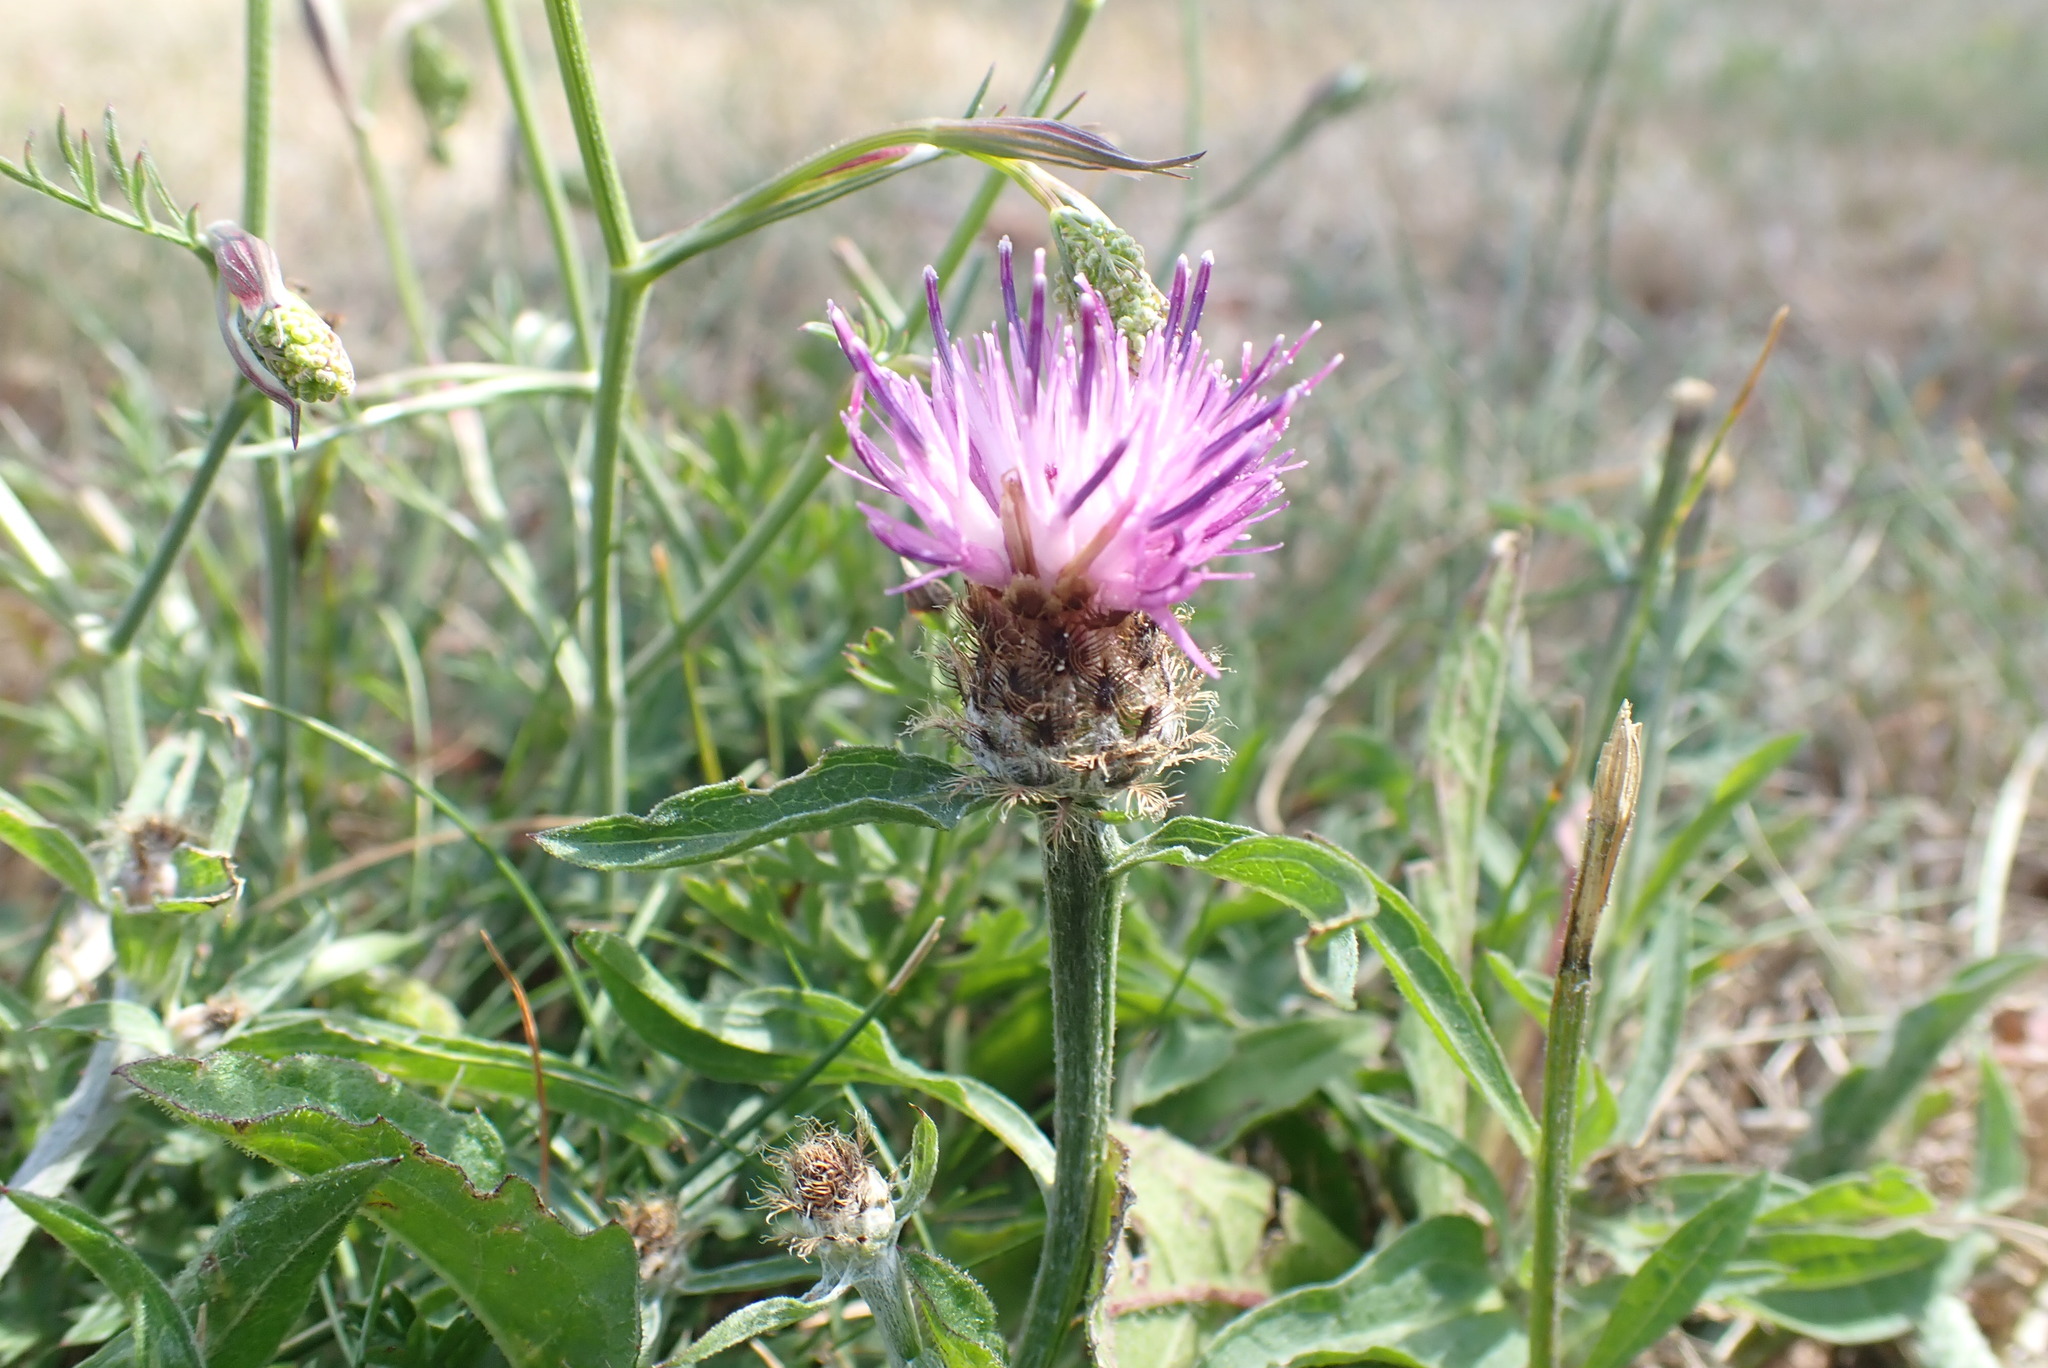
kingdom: Plantae
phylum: Tracheophyta
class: Magnoliopsida
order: Asterales
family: Asteraceae
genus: Centaurea
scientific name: Centaurea debeauxii
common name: Slender knapweed
